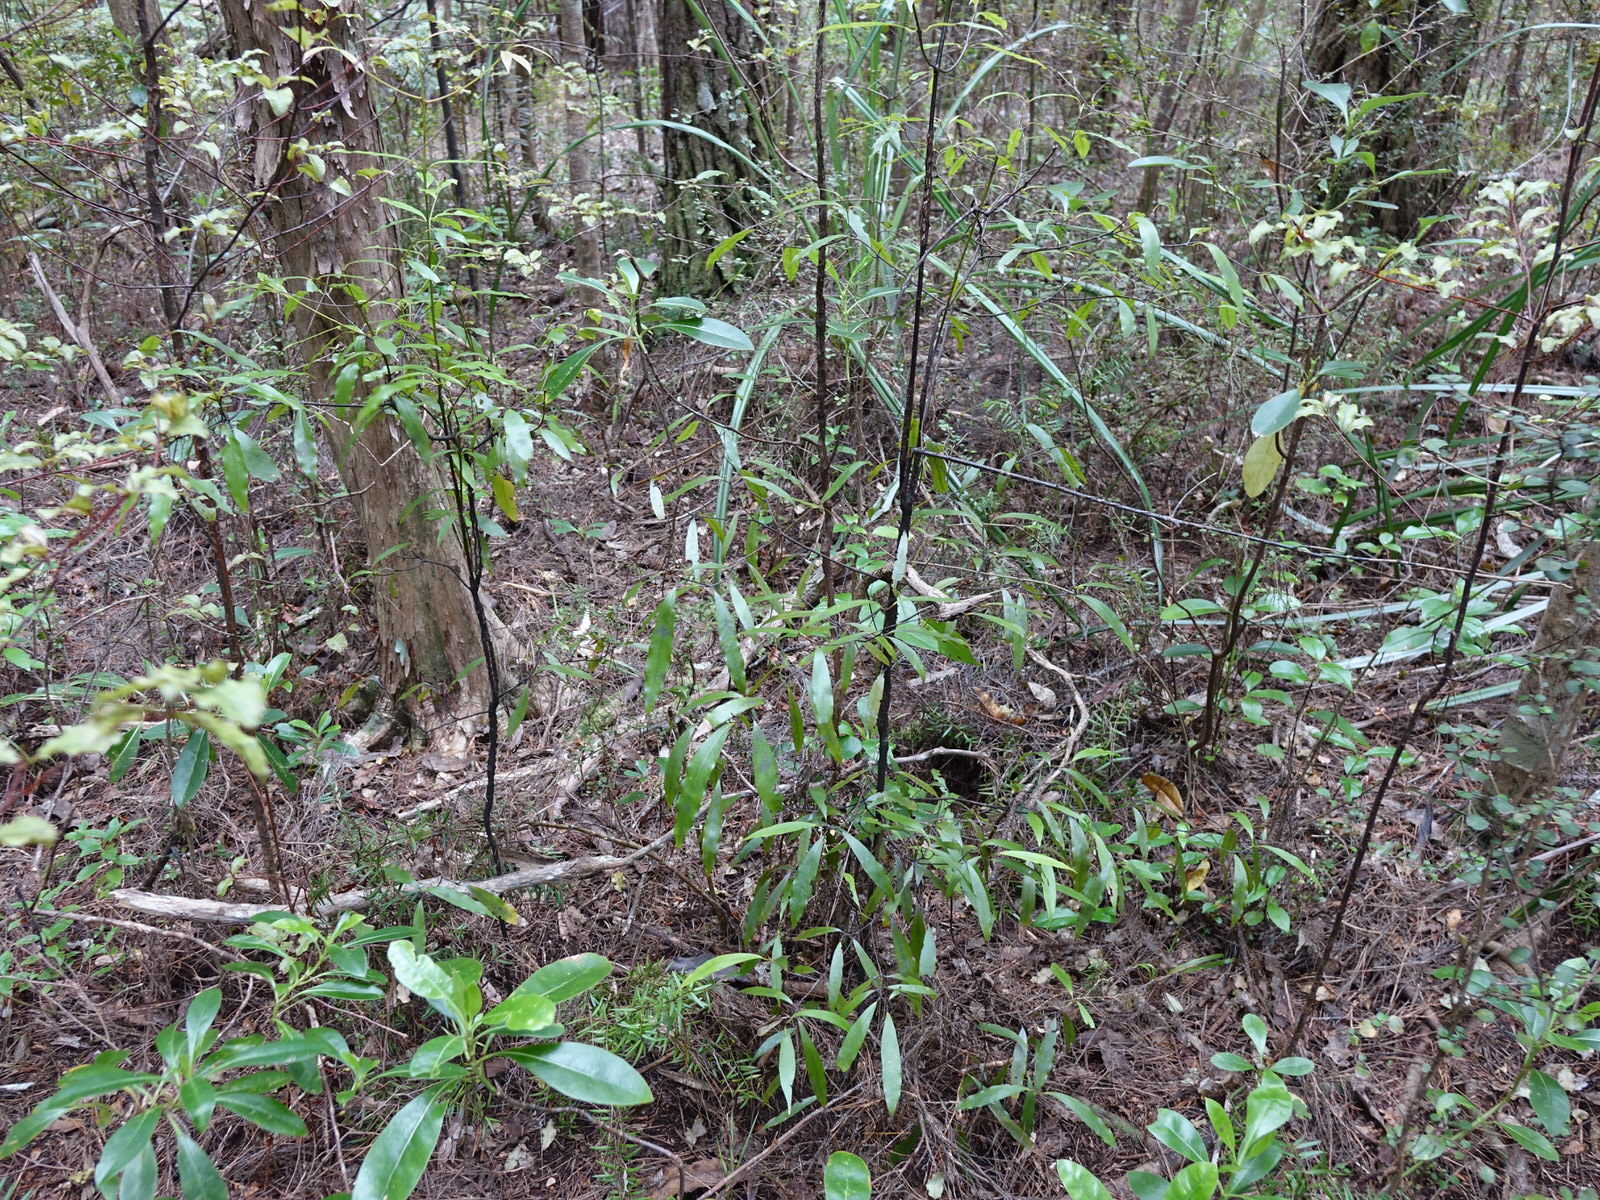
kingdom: Plantae
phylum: Tracheophyta
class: Magnoliopsida
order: Laurales
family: Lauraceae
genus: Beilschmiedia
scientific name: Beilschmiedia tawa
